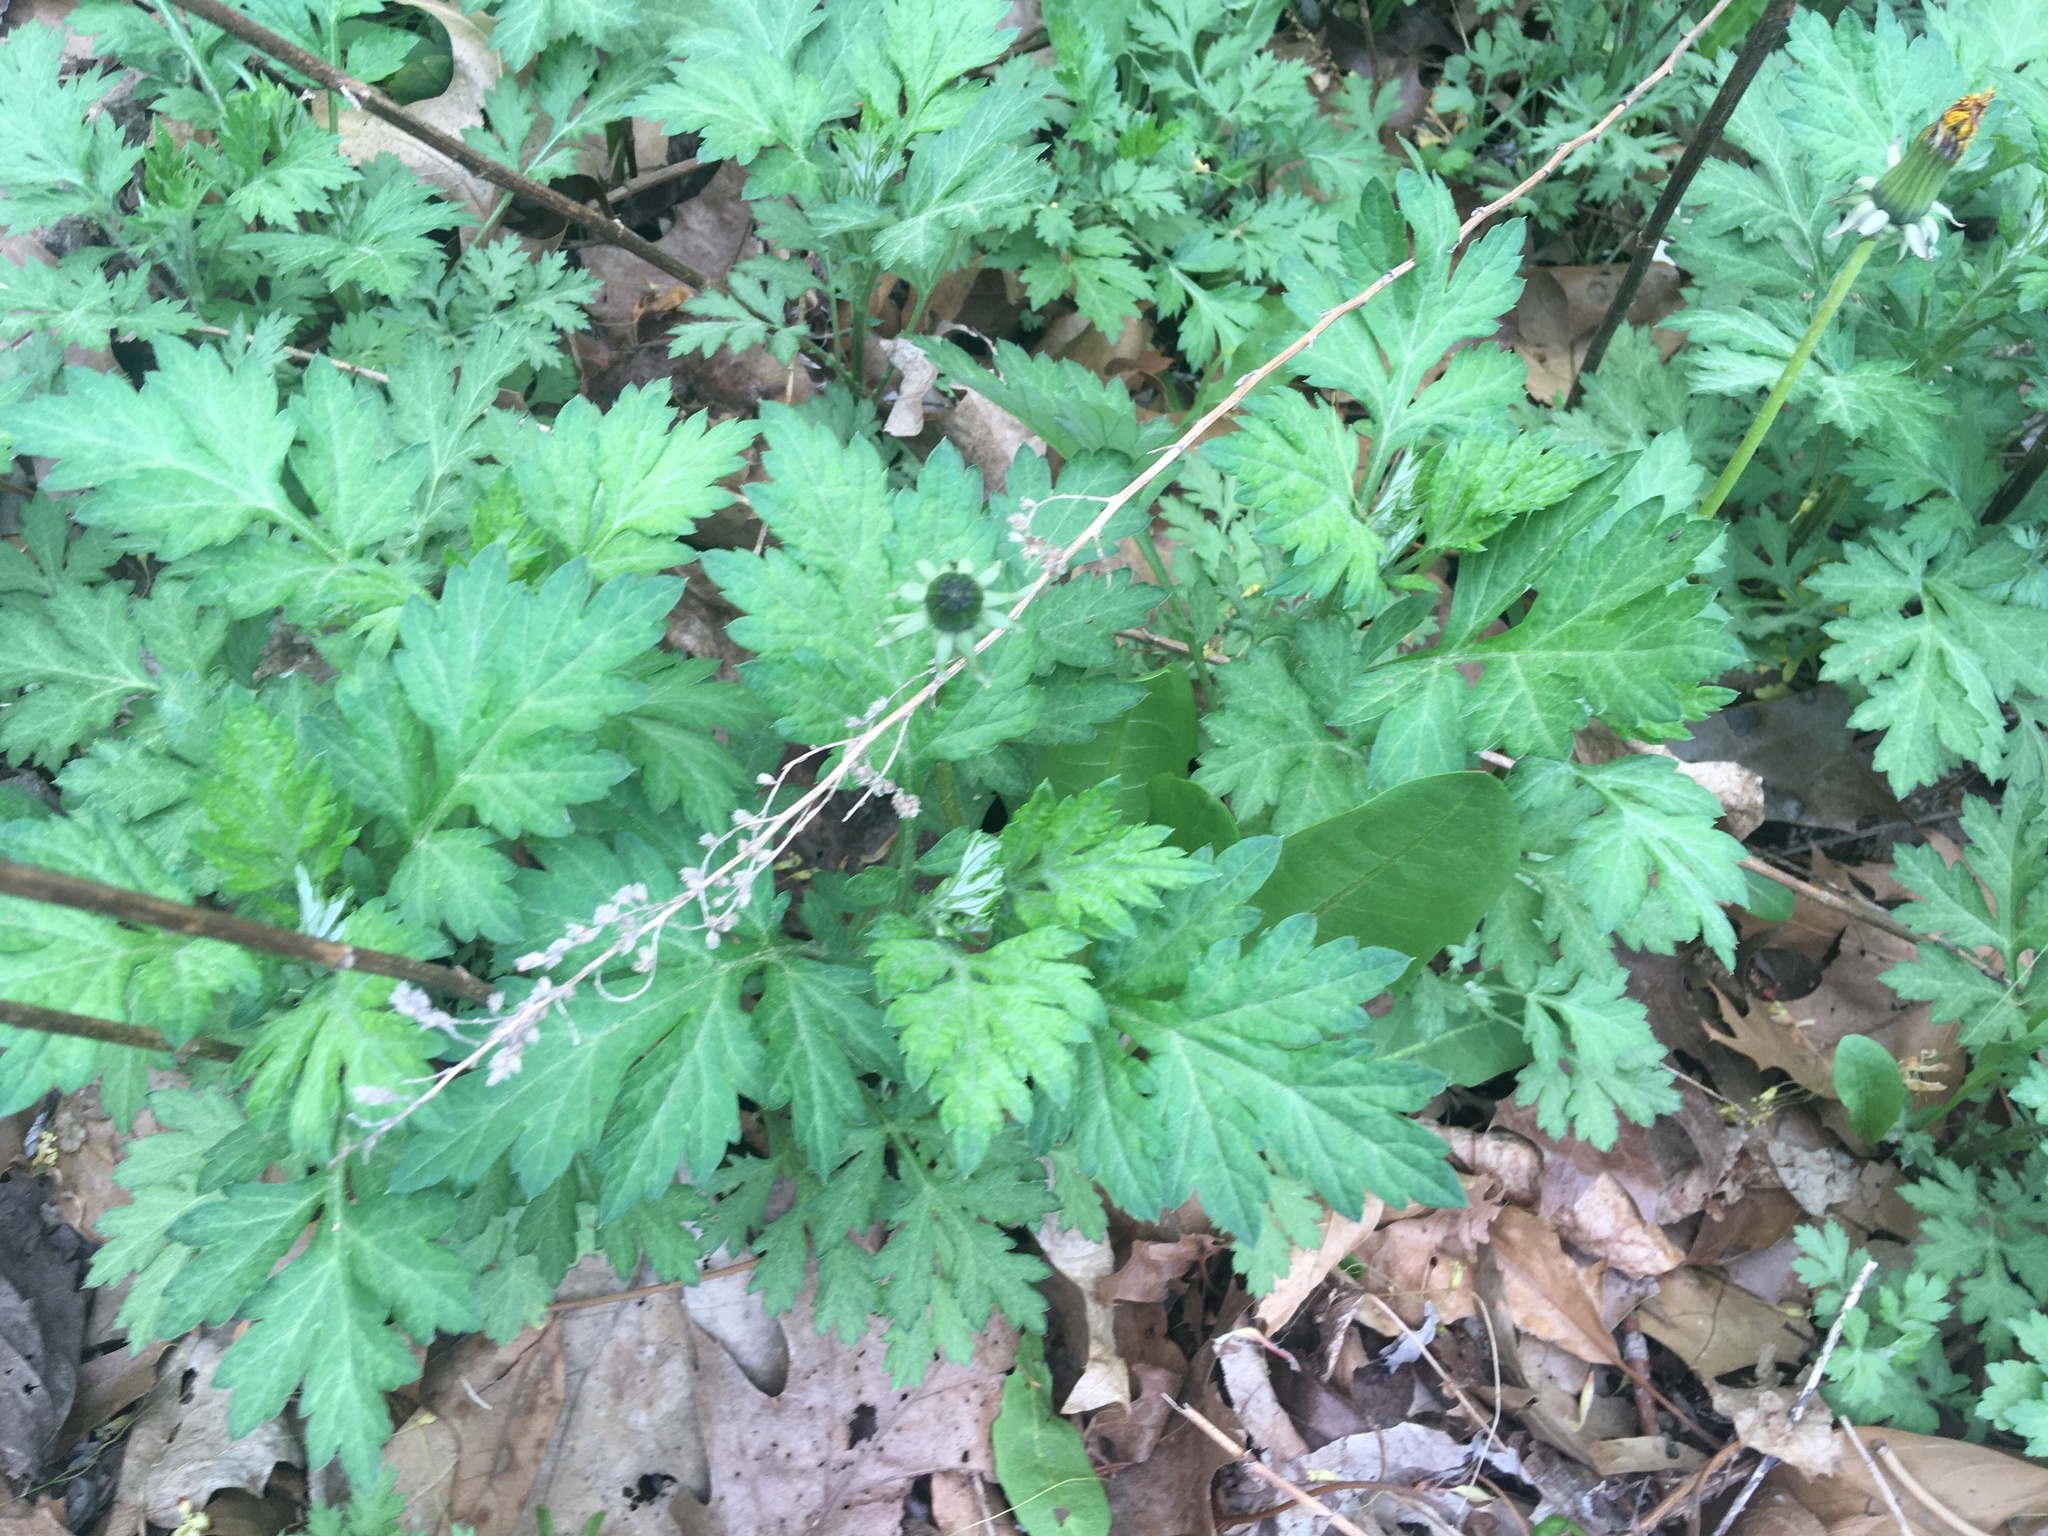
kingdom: Plantae
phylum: Tracheophyta
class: Magnoliopsida
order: Asterales
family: Asteraceae
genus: Artemisia
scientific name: Artemisia vulgaris
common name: Mugwort
